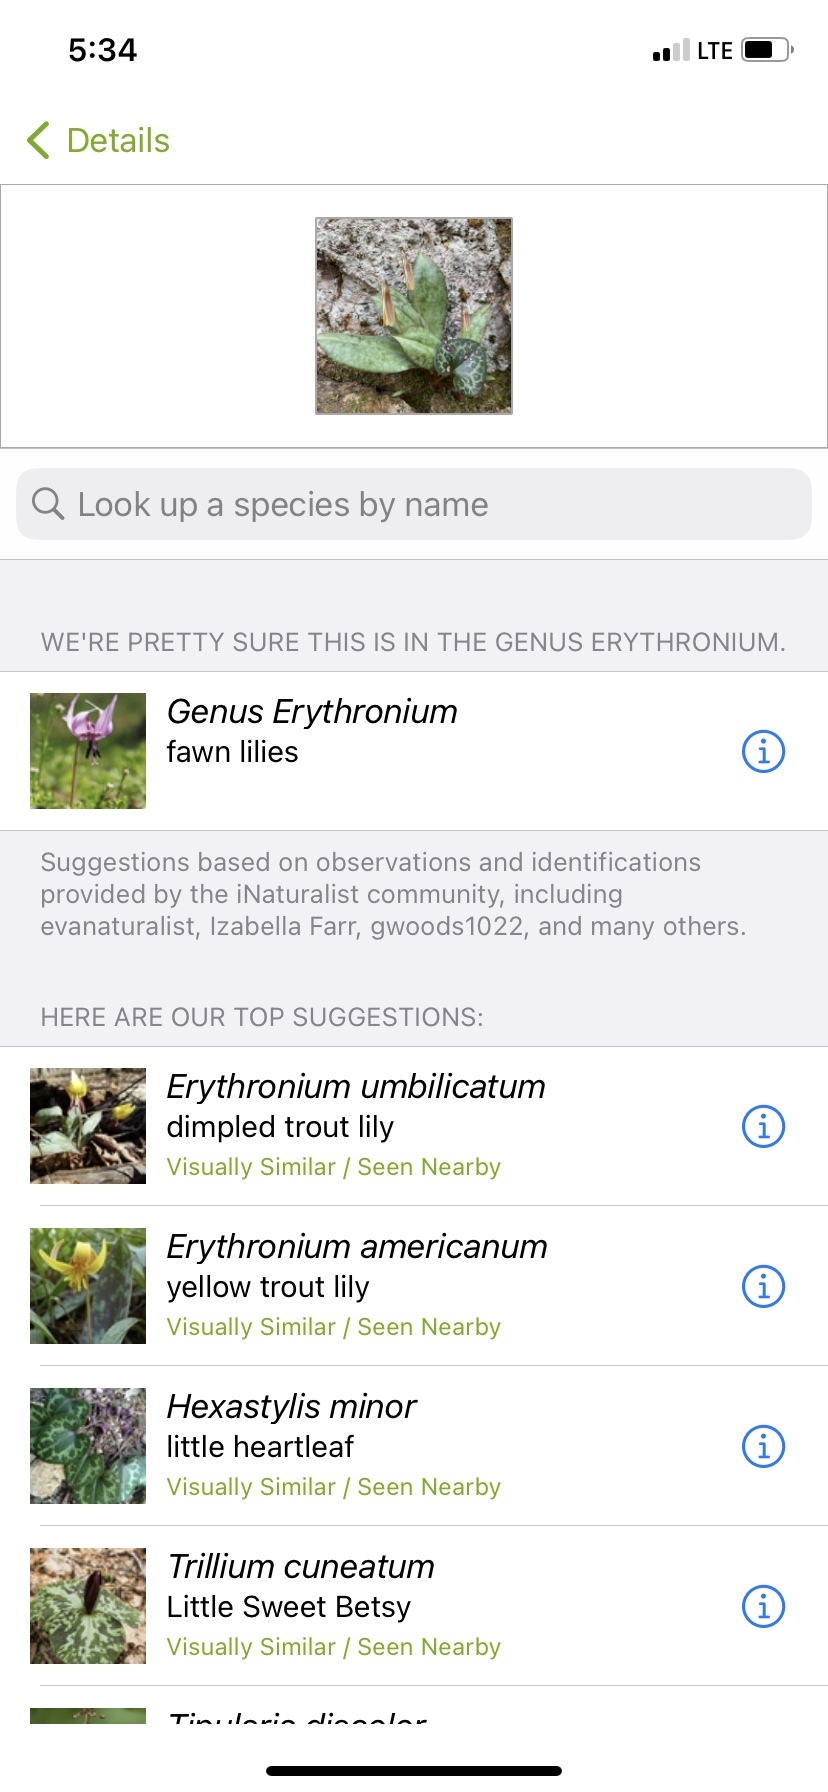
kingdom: Plantae
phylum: Tracheophyta
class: Liliopsida
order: Liliales
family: Liliaceae
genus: Erythronium
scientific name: Erythronium umbilicatum
